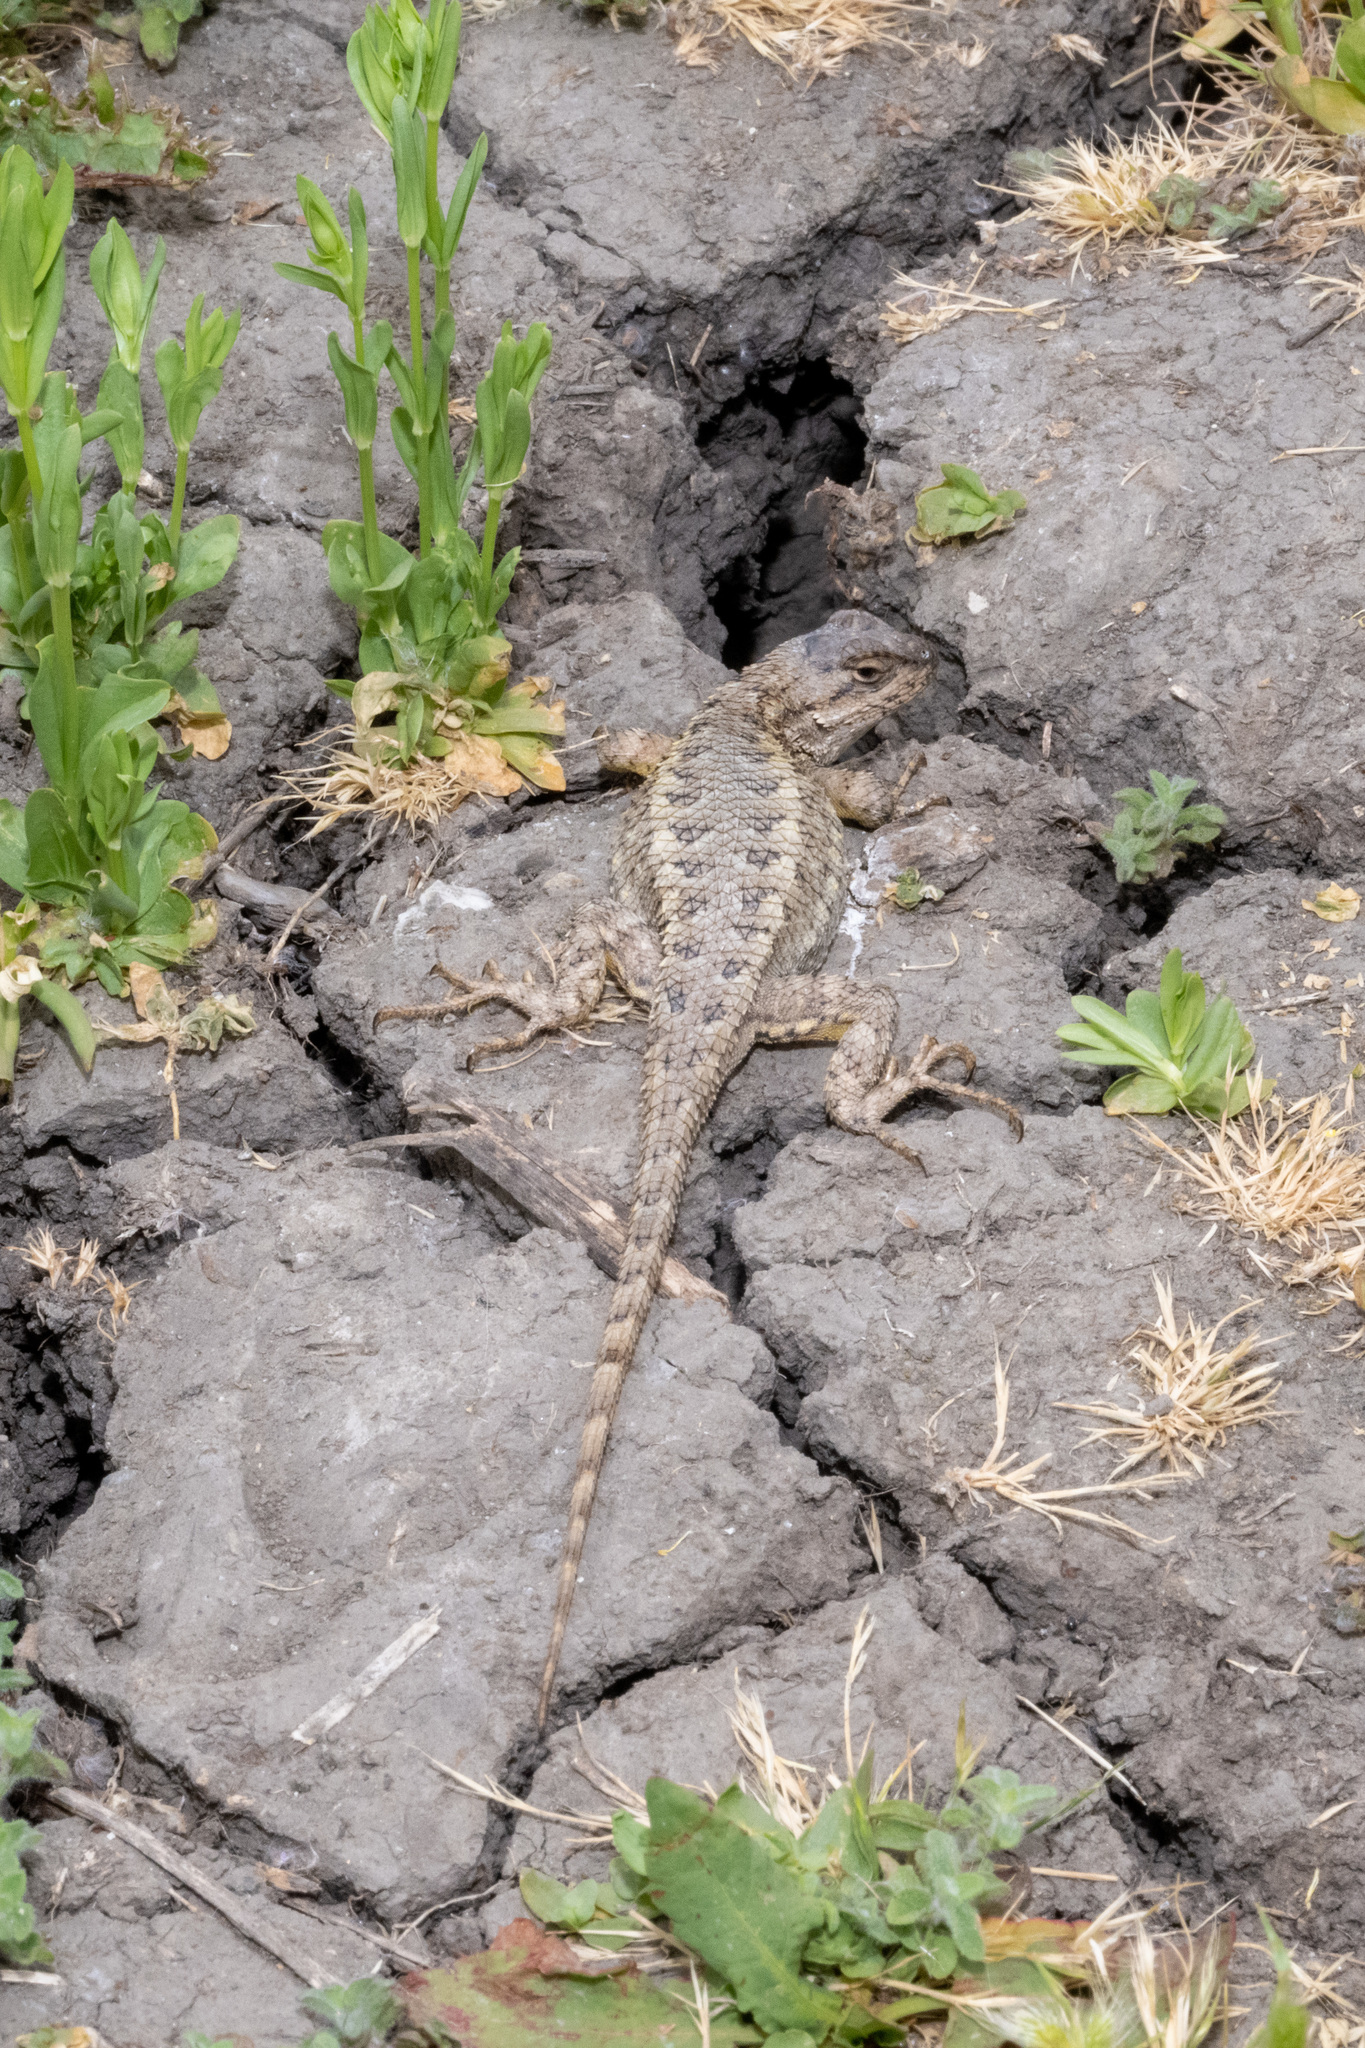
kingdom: Animalia
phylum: Chordata
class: Squamata
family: Phrynosomatidae
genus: Sceloporus
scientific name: Sceloporus occidentalis
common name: Western fence lizard
